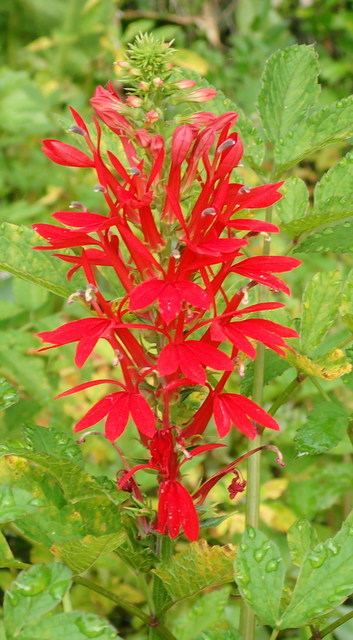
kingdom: Plantae
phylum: Tracheophyta
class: Magnoliopsida
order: Asterales
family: Campanulaceae
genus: Lobelia
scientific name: Lobelia cardinalis
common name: Cardinal flower
